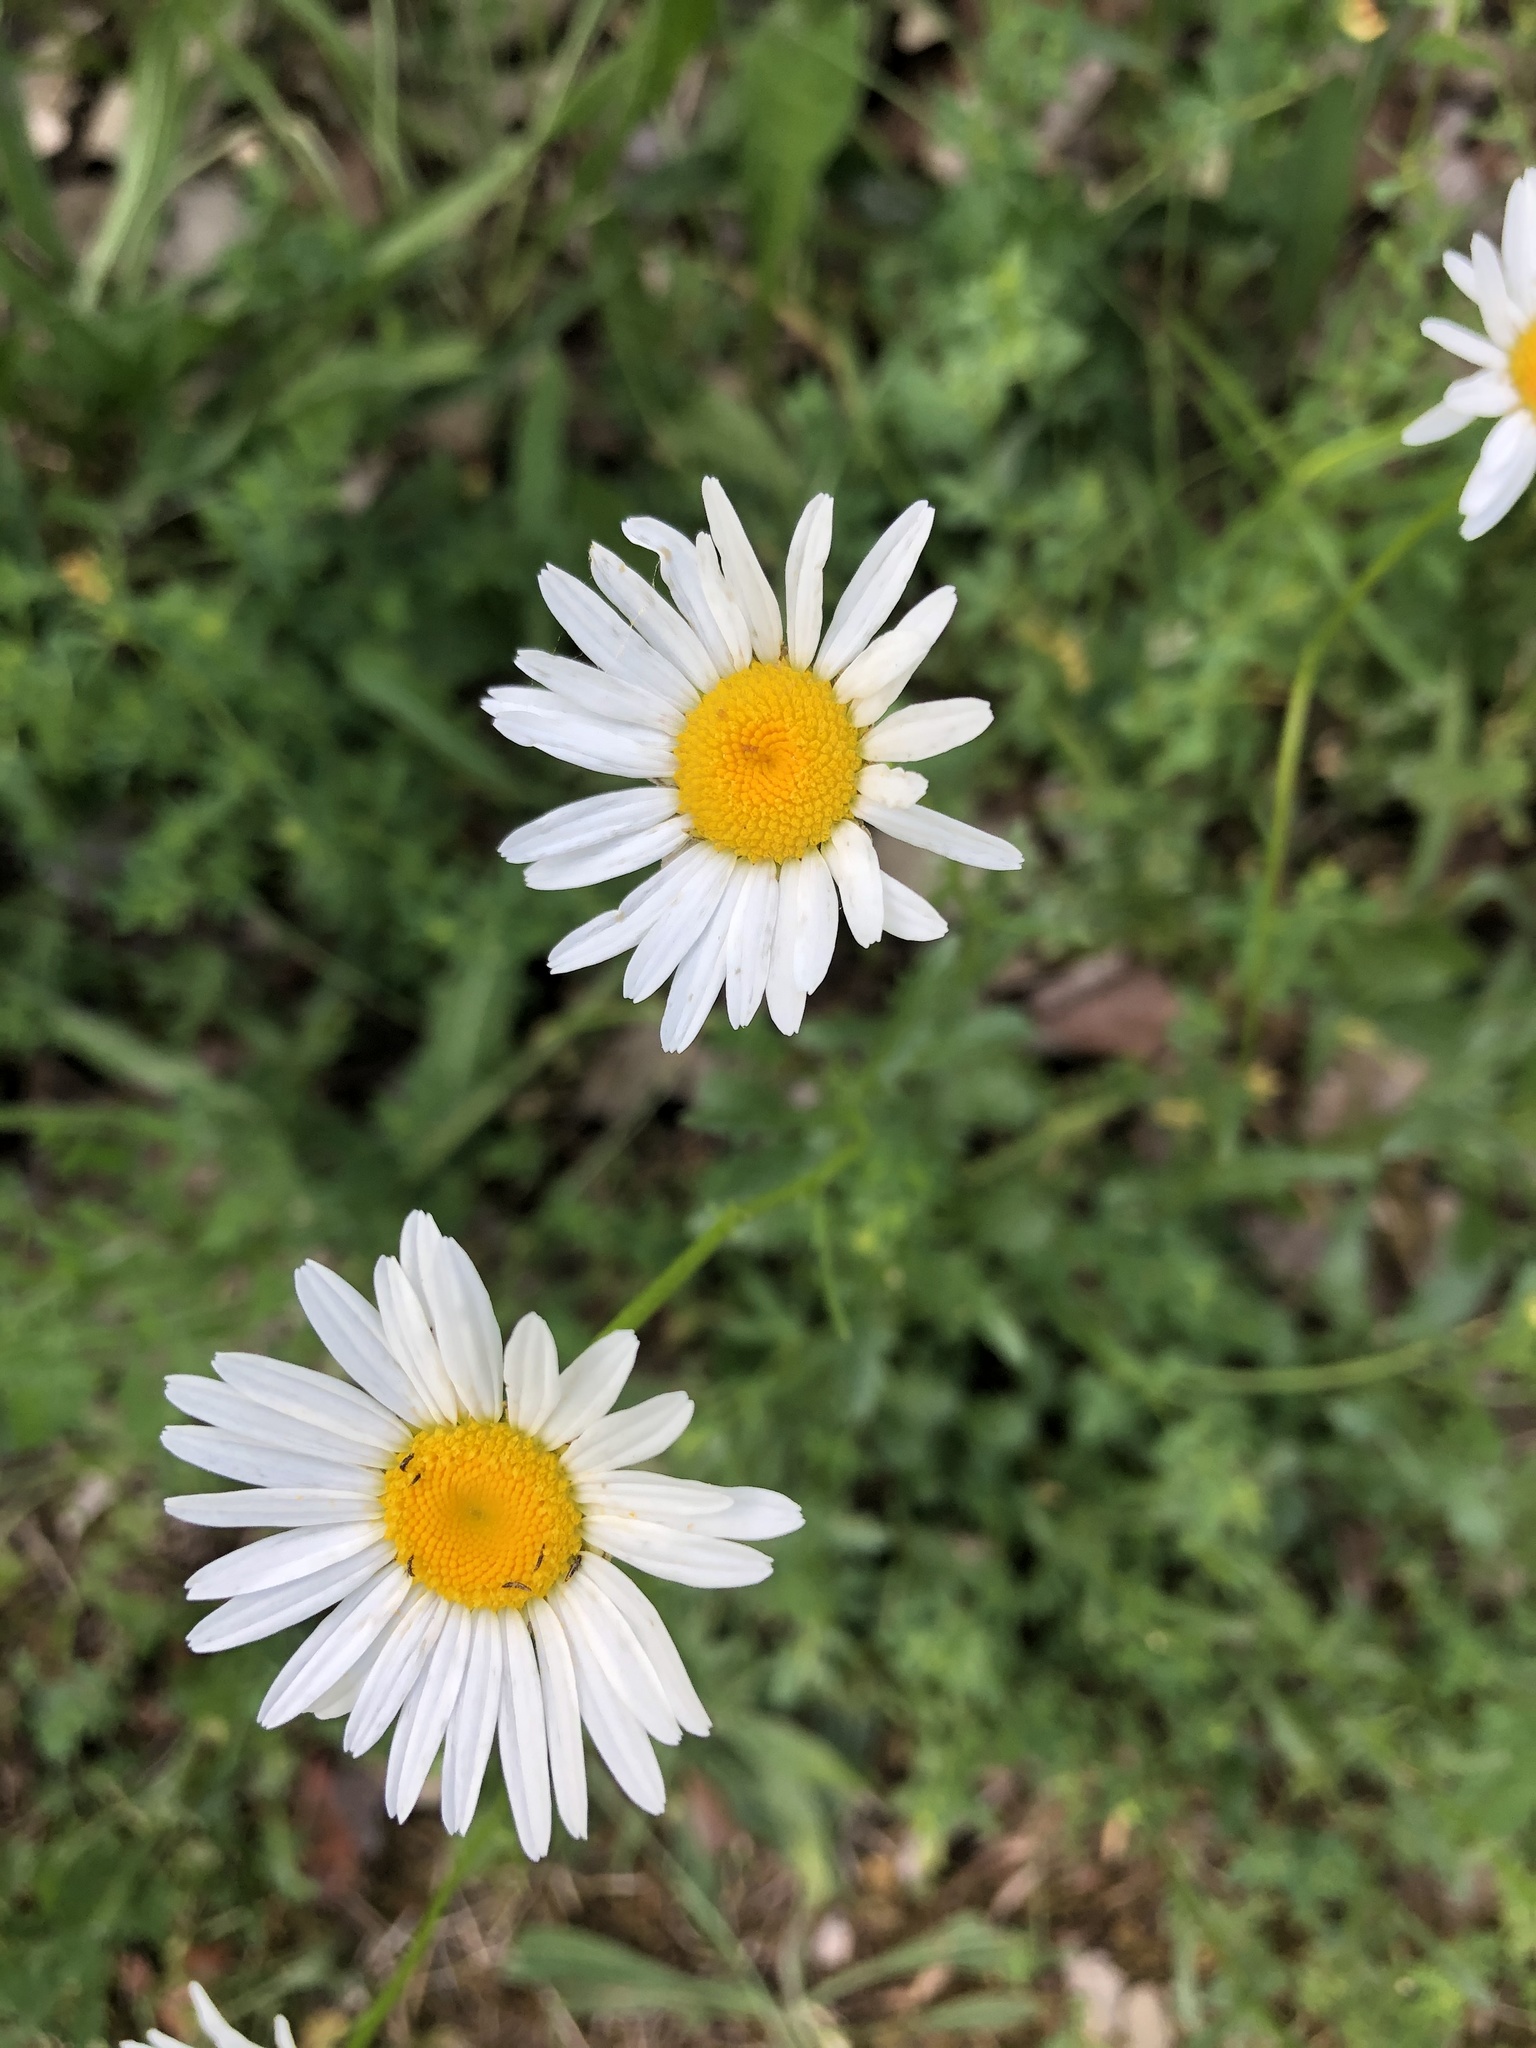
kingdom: Plantae
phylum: Tracheophyta
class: Magnoliopsida
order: Asterales
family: Asteraceae
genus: Leucanthemum
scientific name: Leucanthemum vulgare
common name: Oxeye daisy
